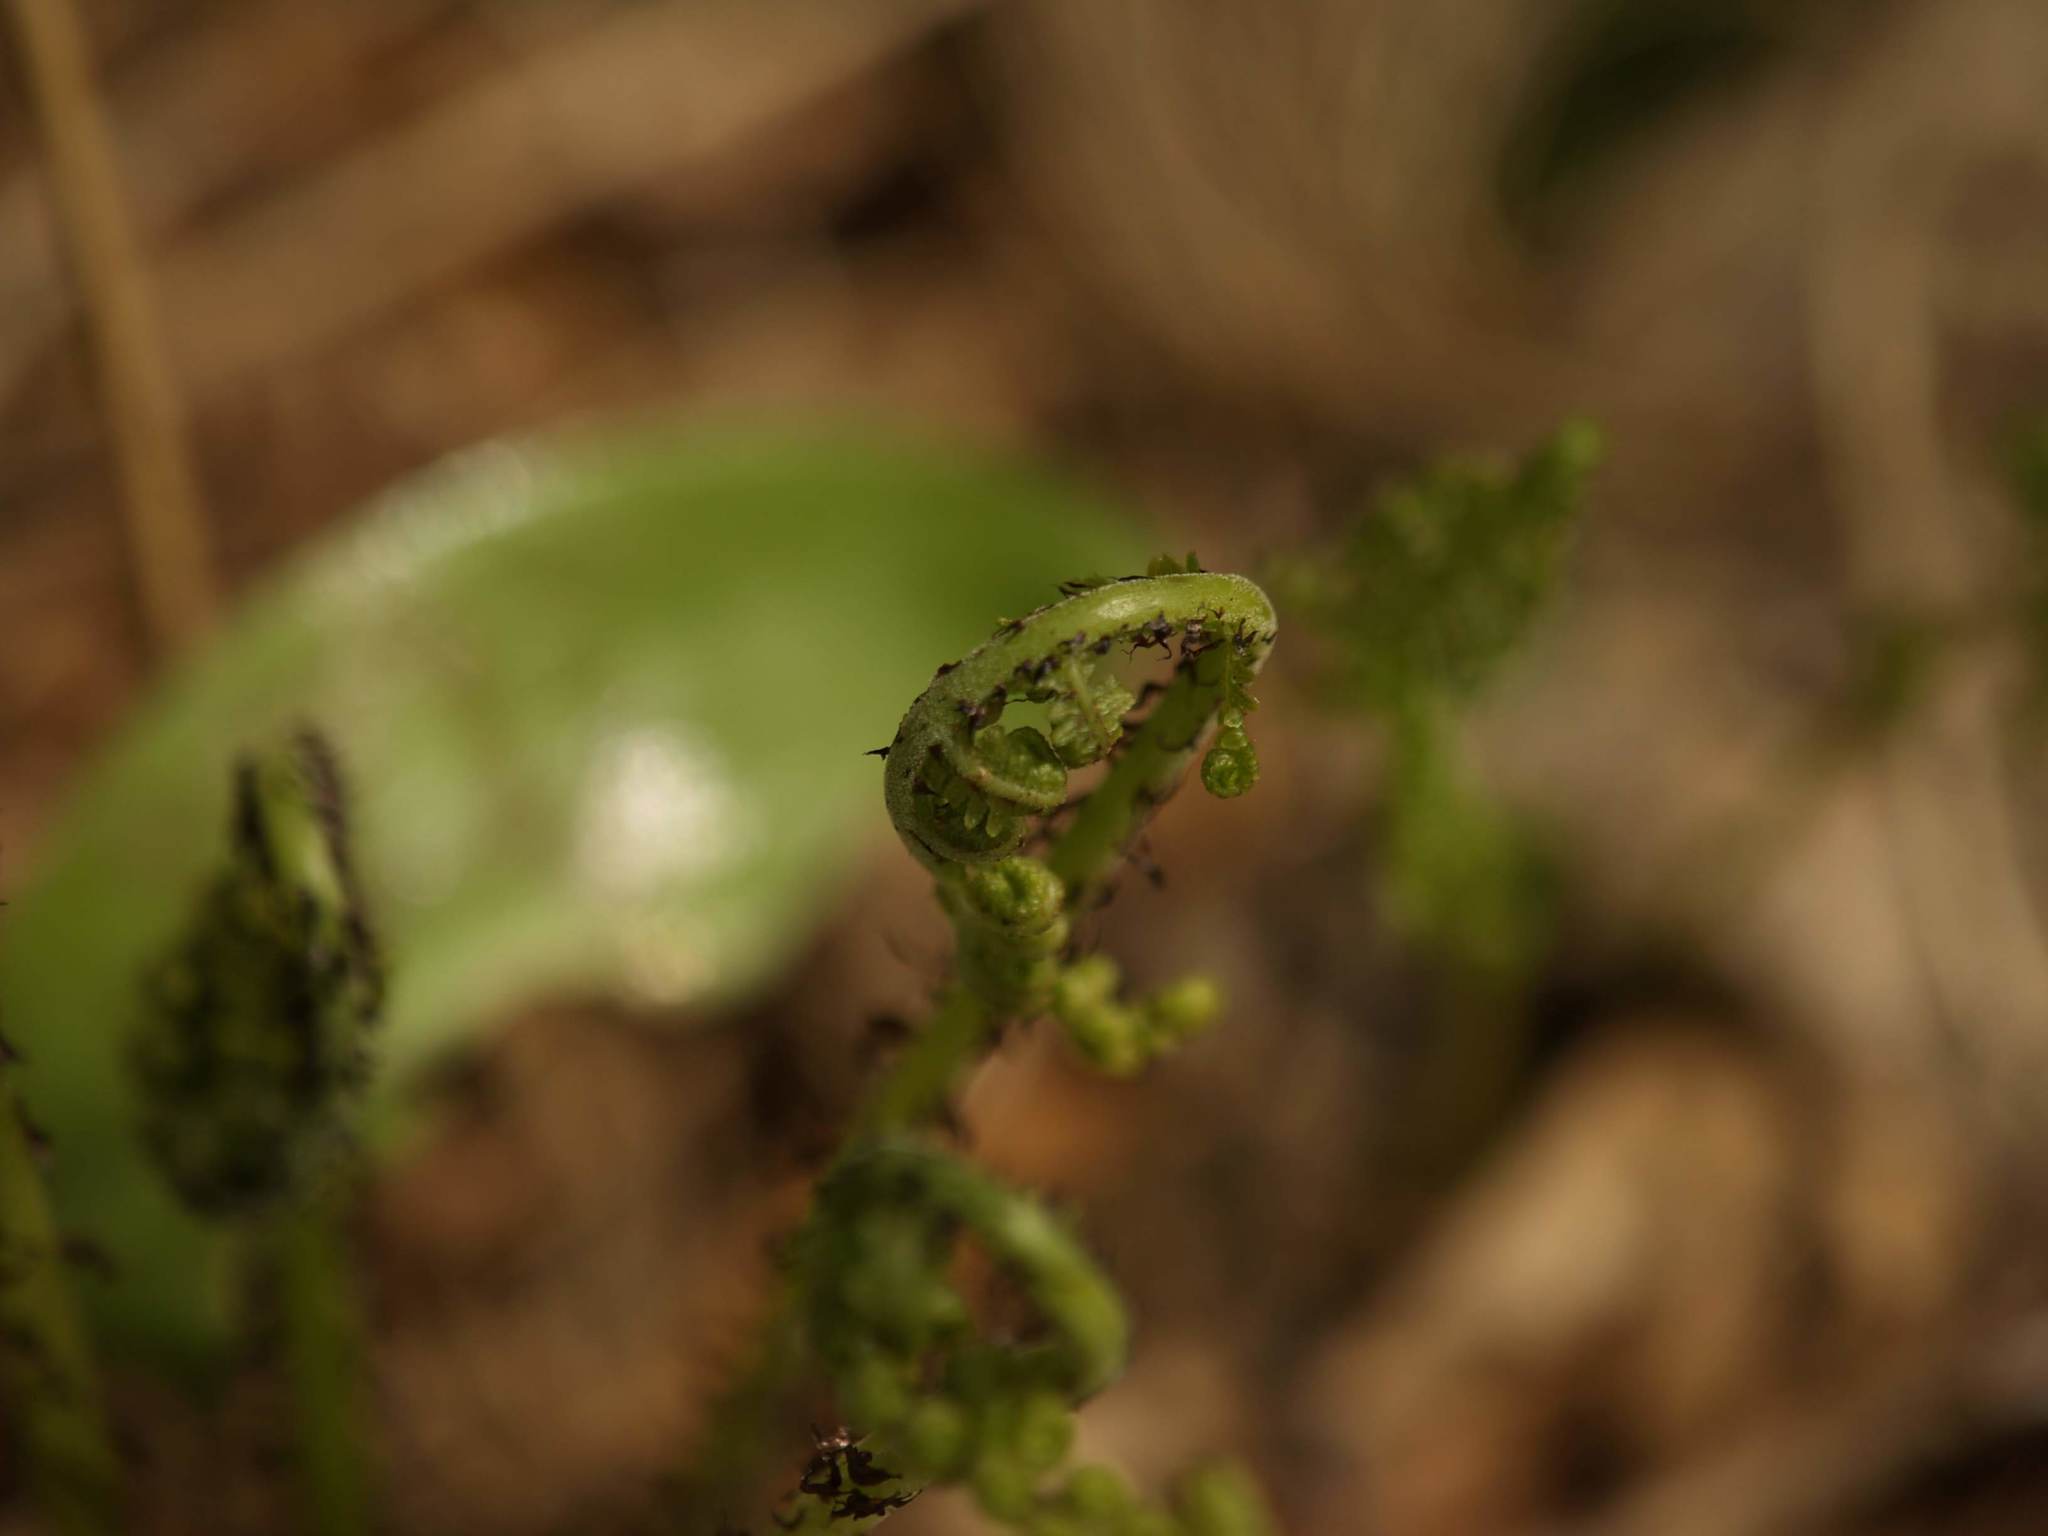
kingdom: Plantae
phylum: Tracheophyta
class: Polypodiopsida
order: Polypodiales
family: Athyriaceae
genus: Athyrium
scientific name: Athyrium angustum
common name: Northern lady fern
